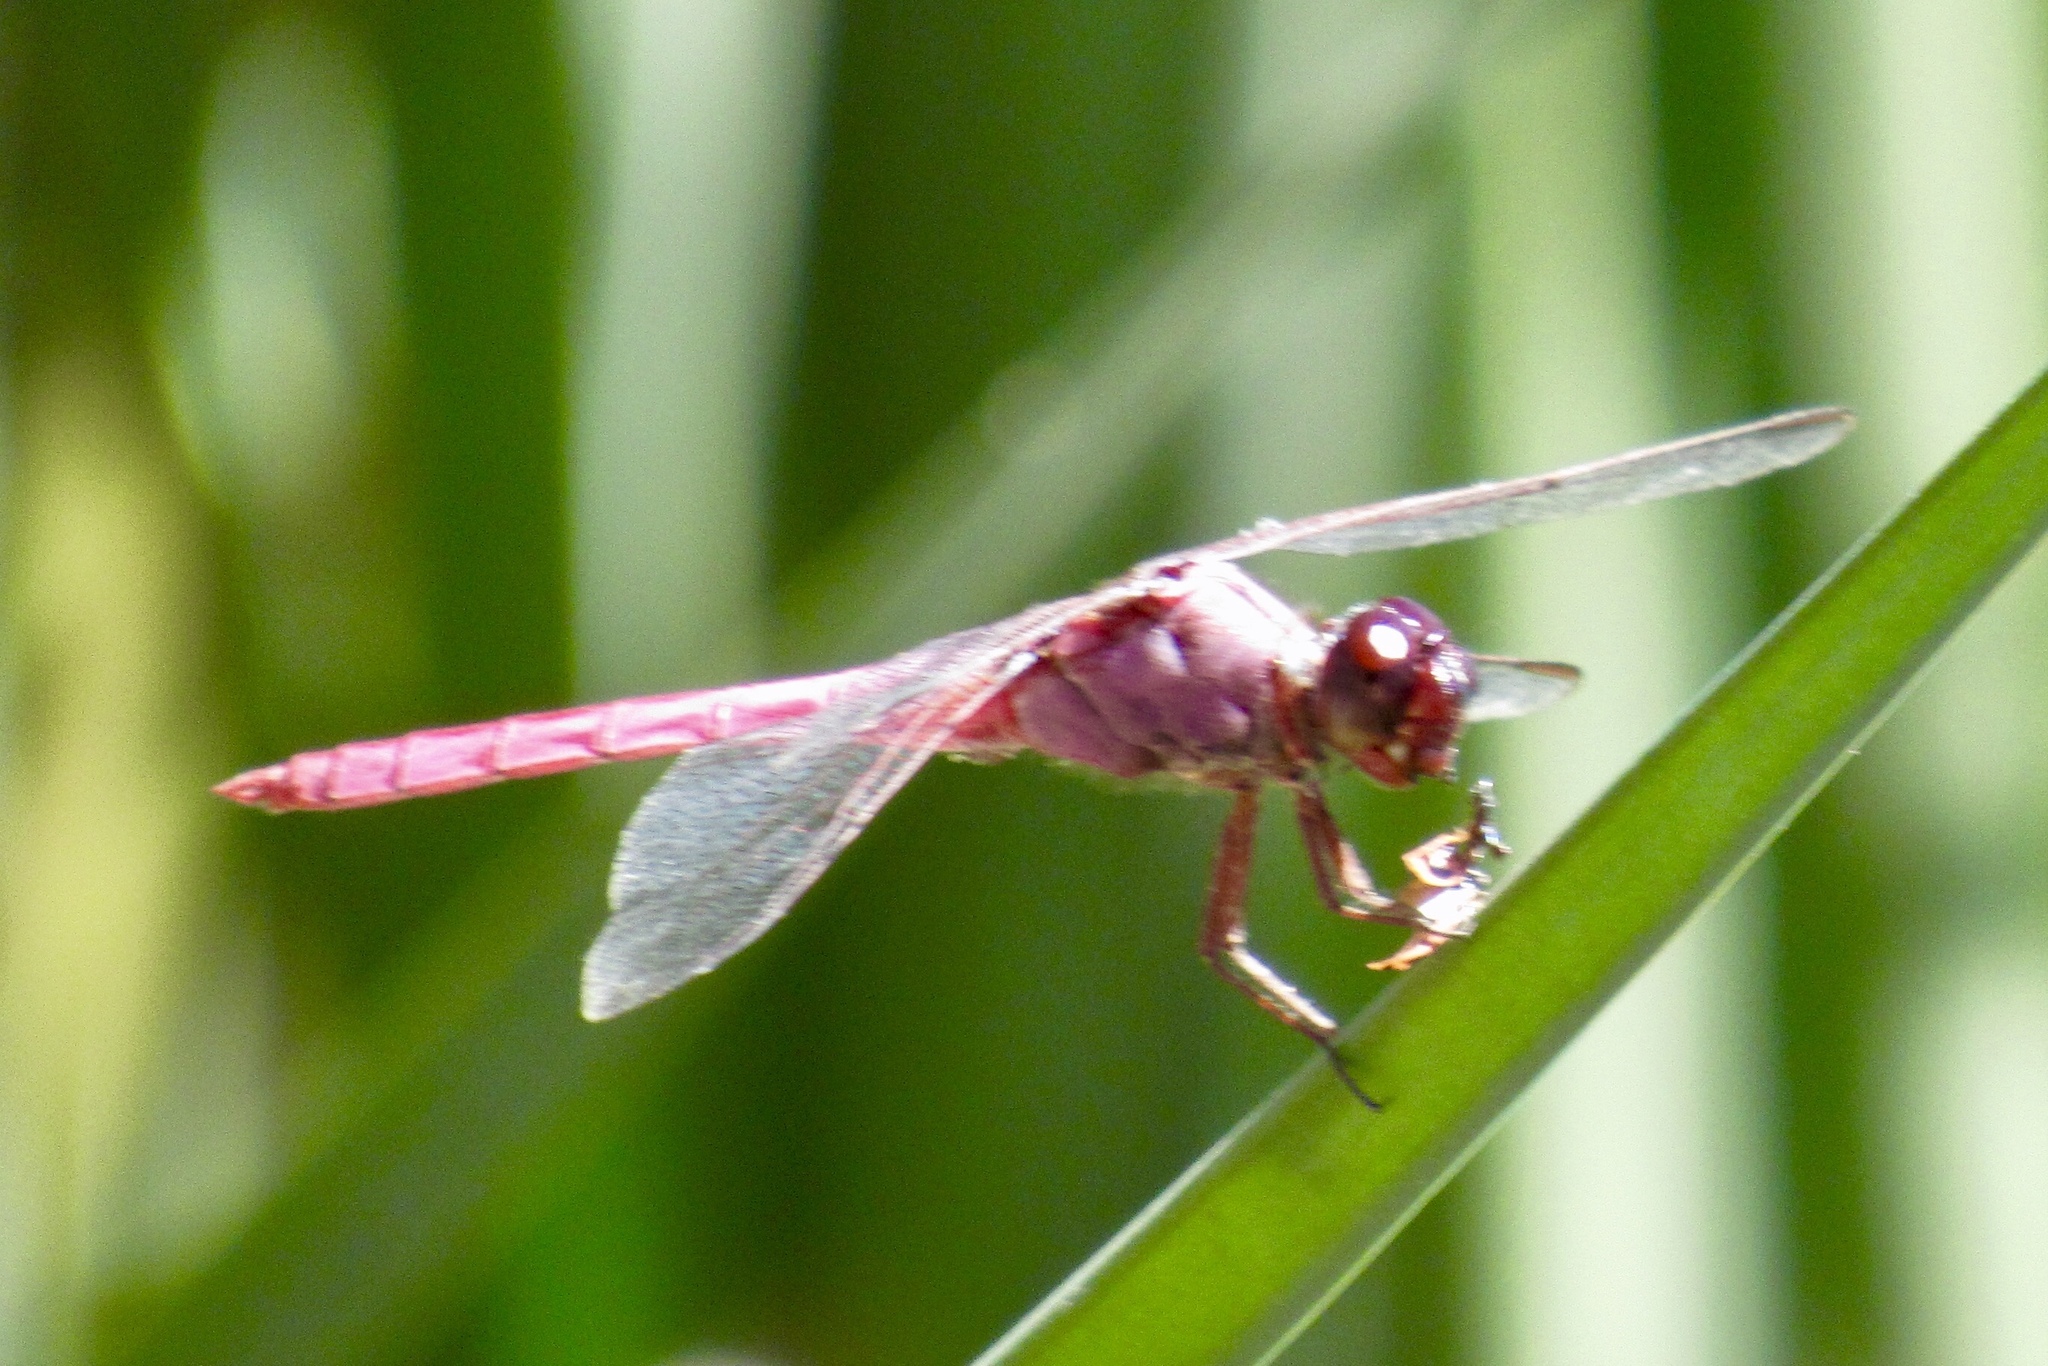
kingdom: Animalia
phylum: Arthropoda
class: Insecta
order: Odonata
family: Libellulidae
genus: Orthemis
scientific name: Orthemis ferruginea
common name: Roseate skimmer
